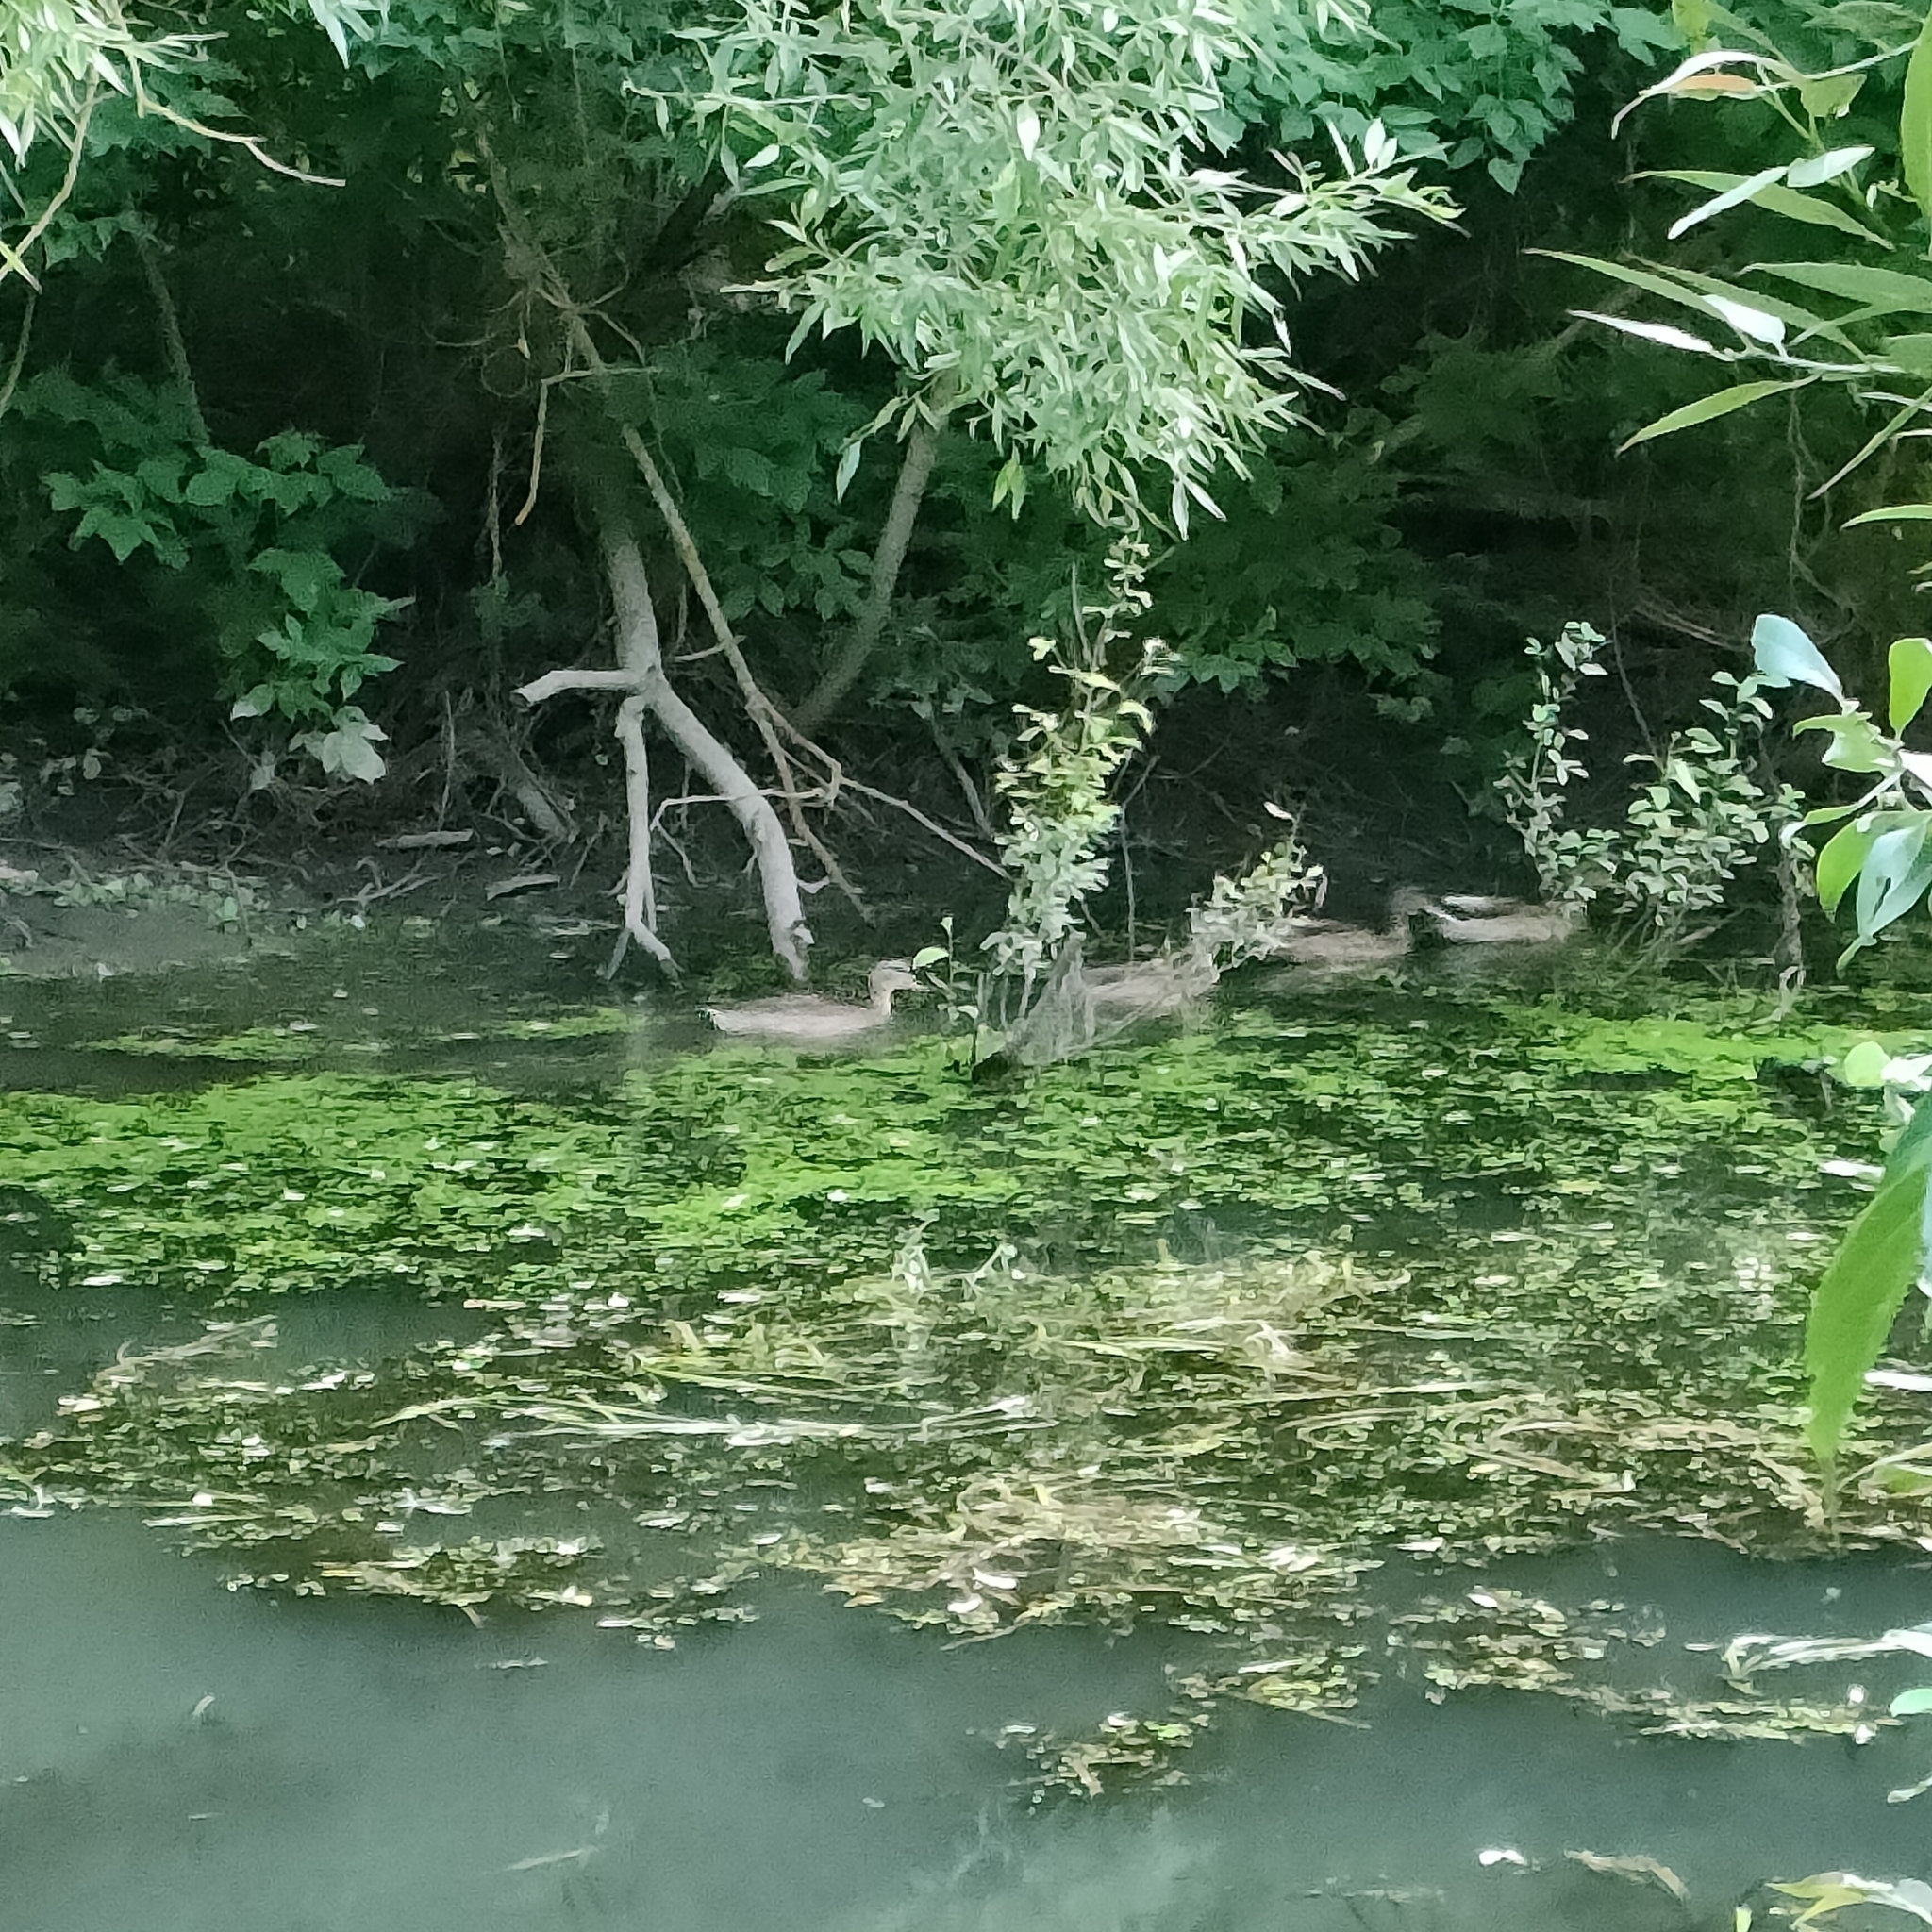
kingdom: Animalia
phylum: Chordata
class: Aves
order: Anseriformes
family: Anatidae
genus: Anas
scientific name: Anas platyrhynchos
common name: Mallard
